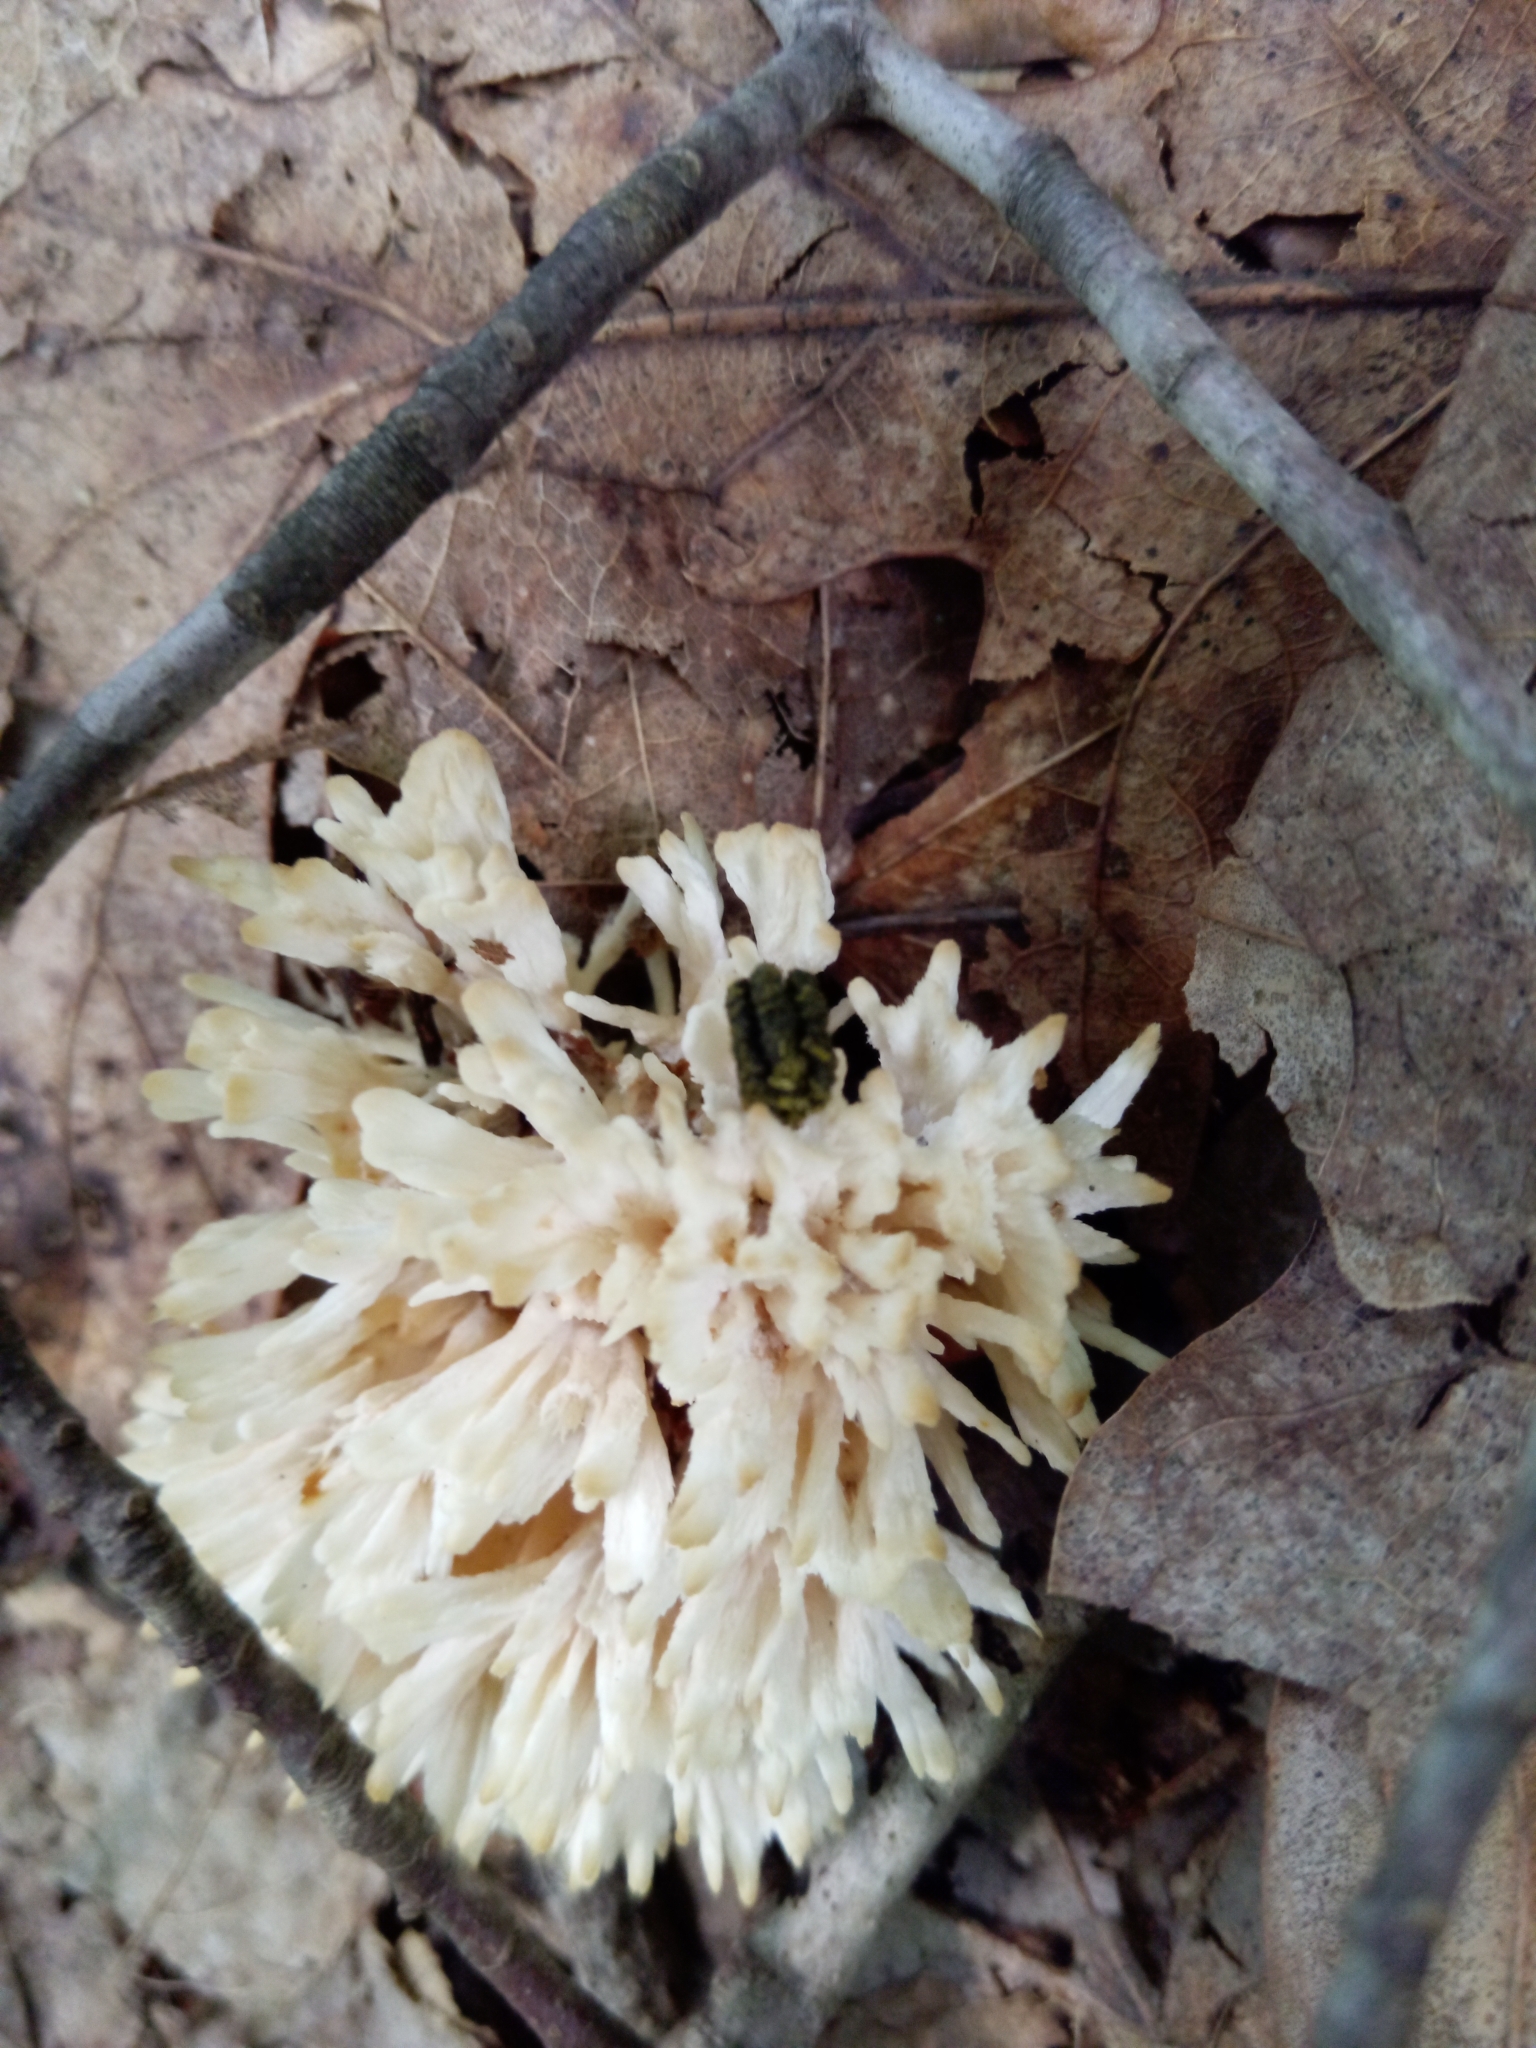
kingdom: Fungi
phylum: Basidiomycota
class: Agaricomycetes
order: Sebacinales
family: Sebacinaceae
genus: Sebacina
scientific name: Sebacina schweinitzii
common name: Jellied false coral fungus
